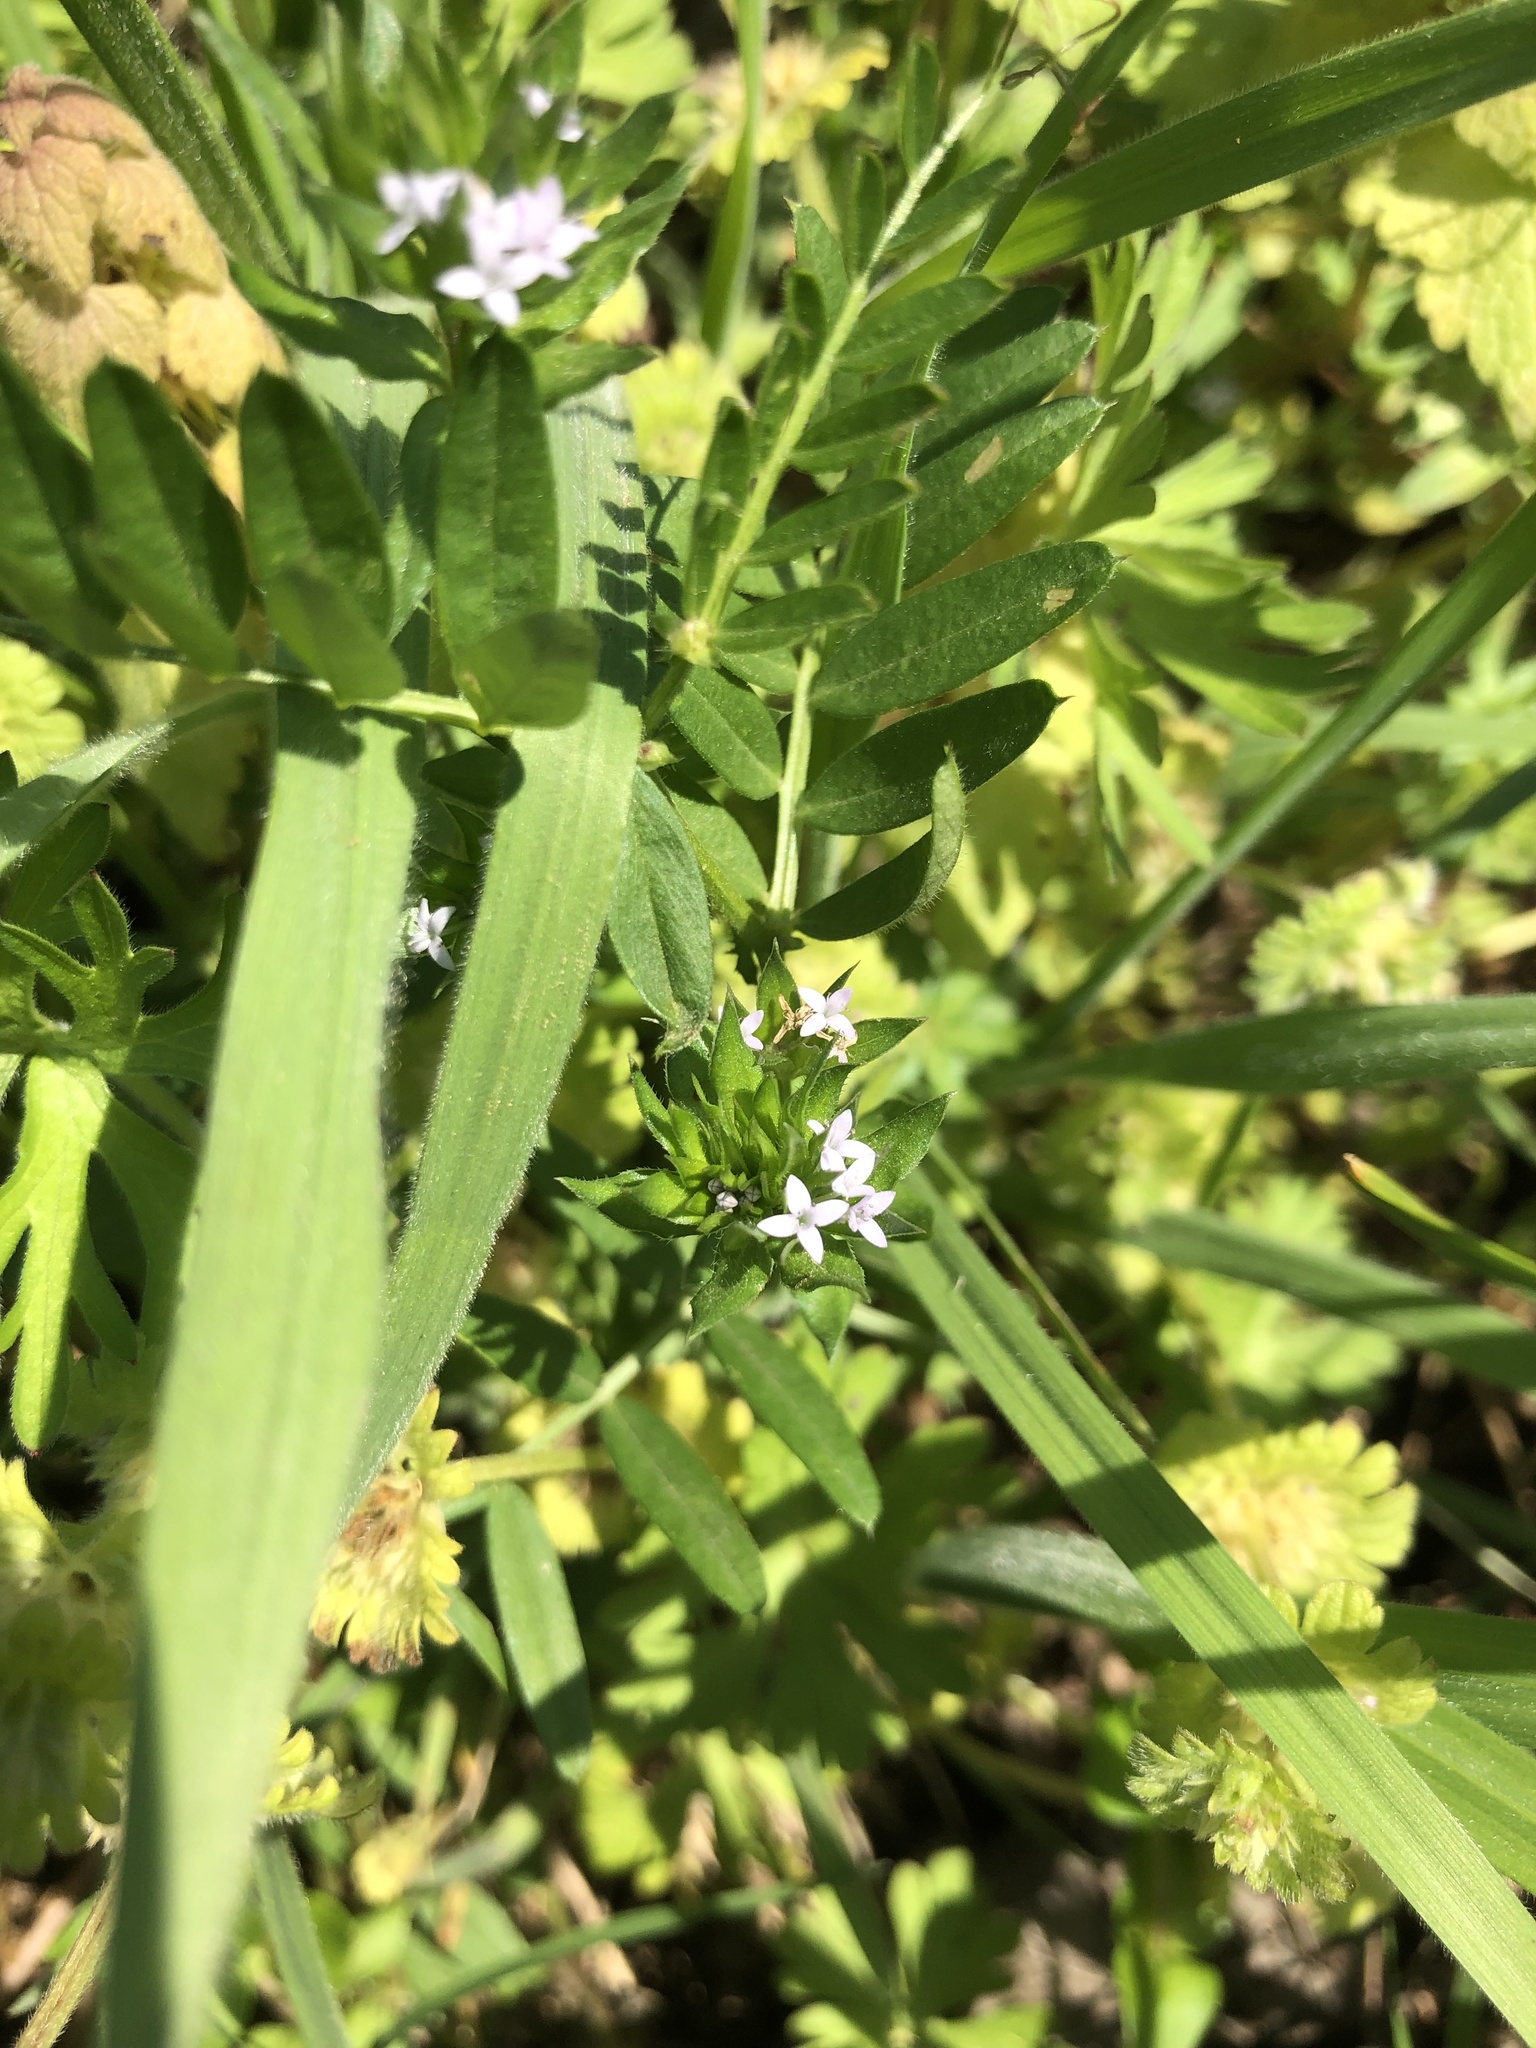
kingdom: Plantae
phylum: Tracheophyta
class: Magnoliopsida
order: Gentianales
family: Rubiaceae
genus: Sherardia
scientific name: Sherardia arvensis
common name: Field madder
